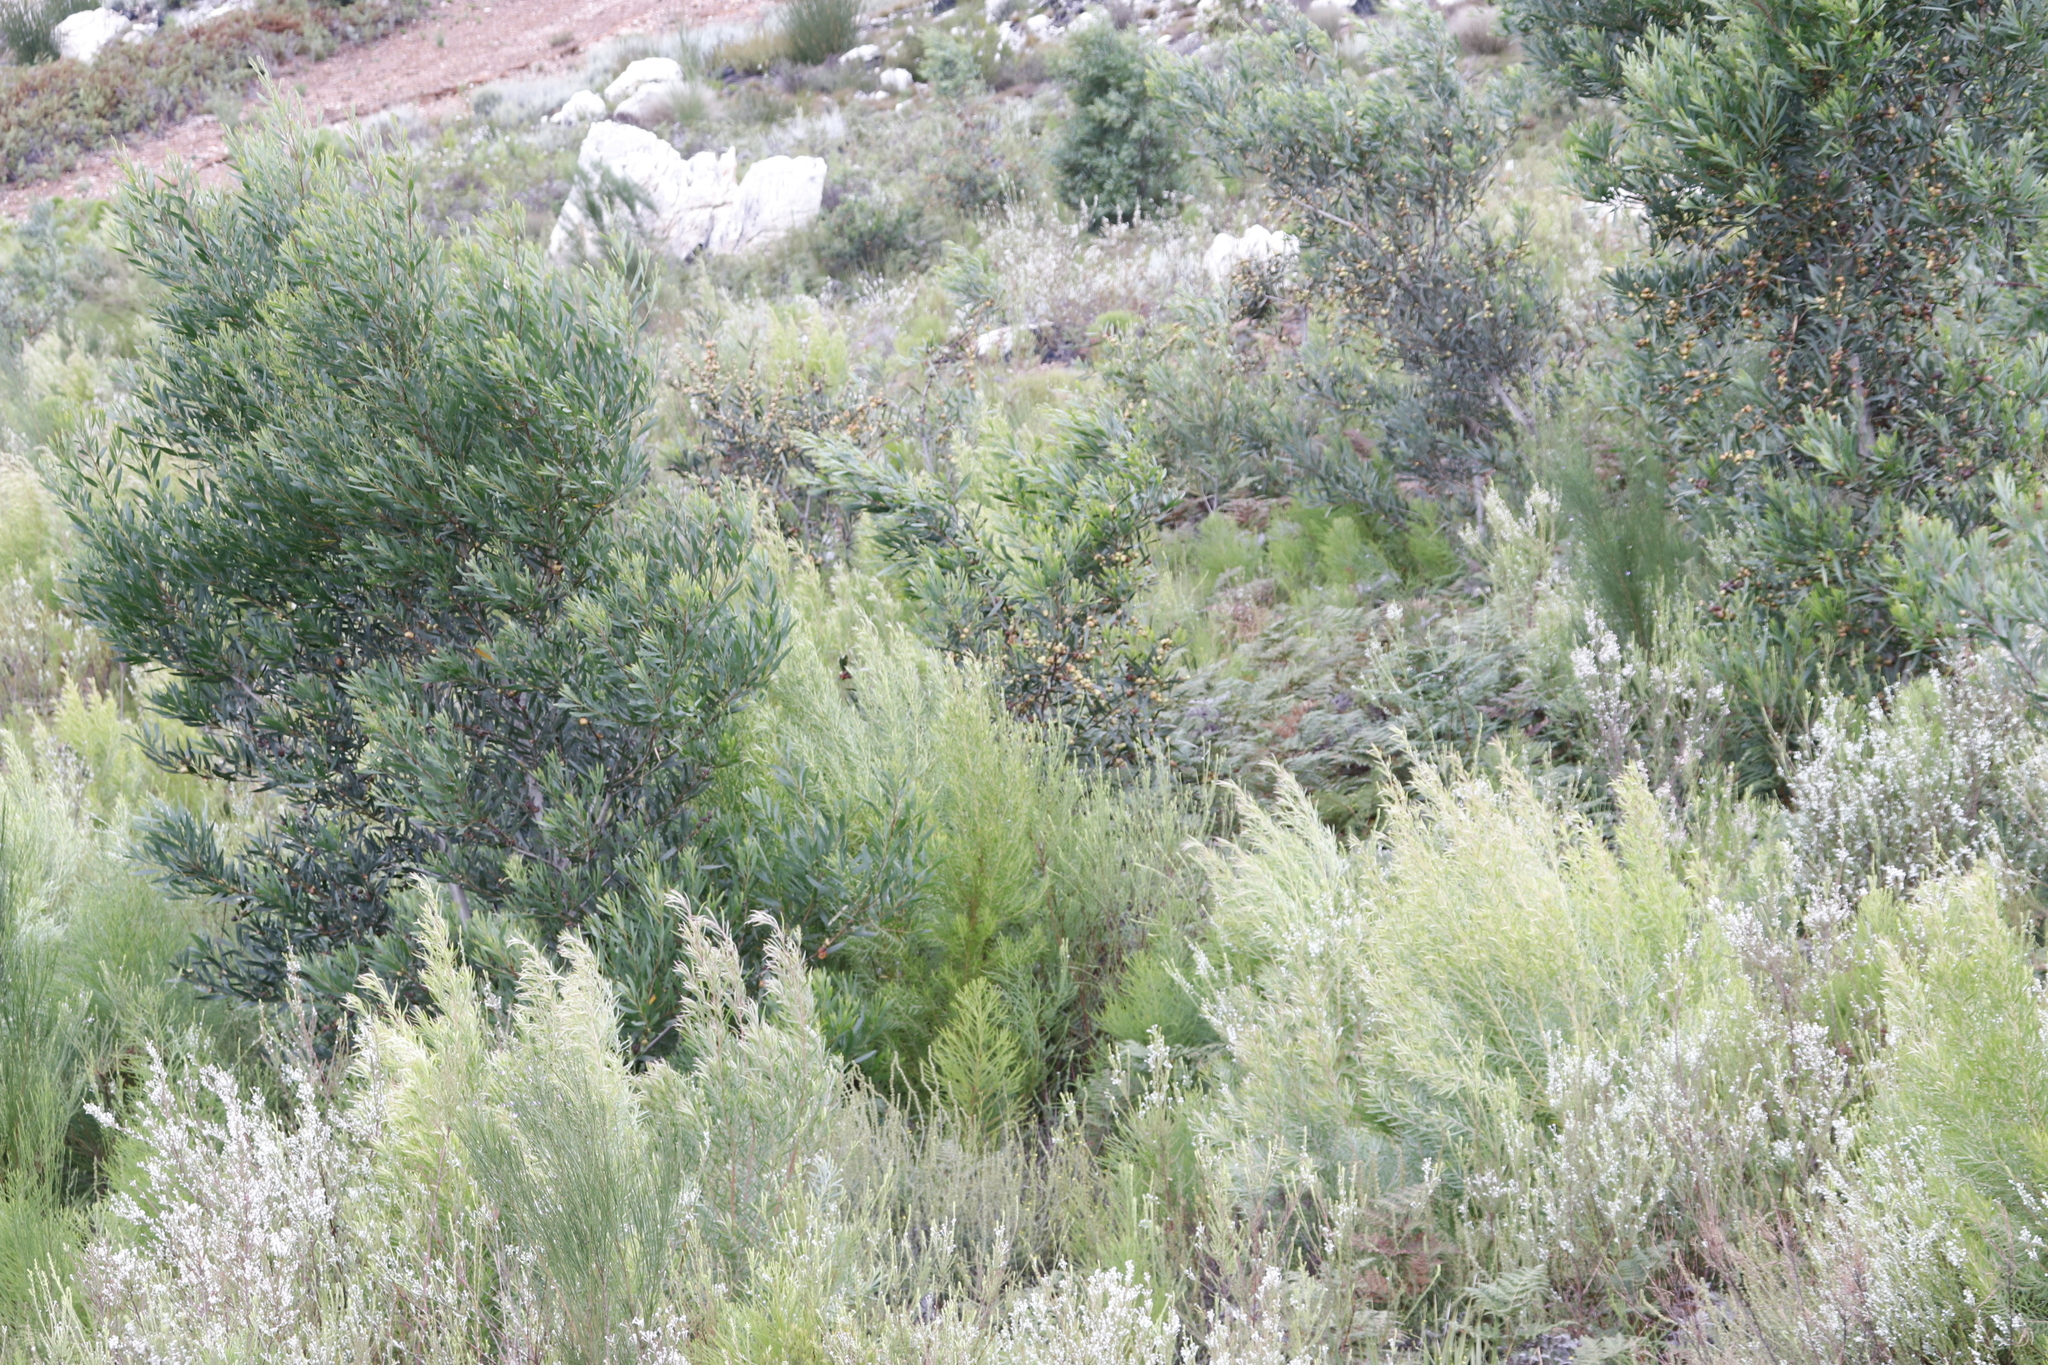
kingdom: Plantae
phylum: Tracheophyta
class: Magnoliopsida
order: Fabales
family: Fabaceae
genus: Acacia
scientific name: Acacia longifolia
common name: Sydney golden wattle
